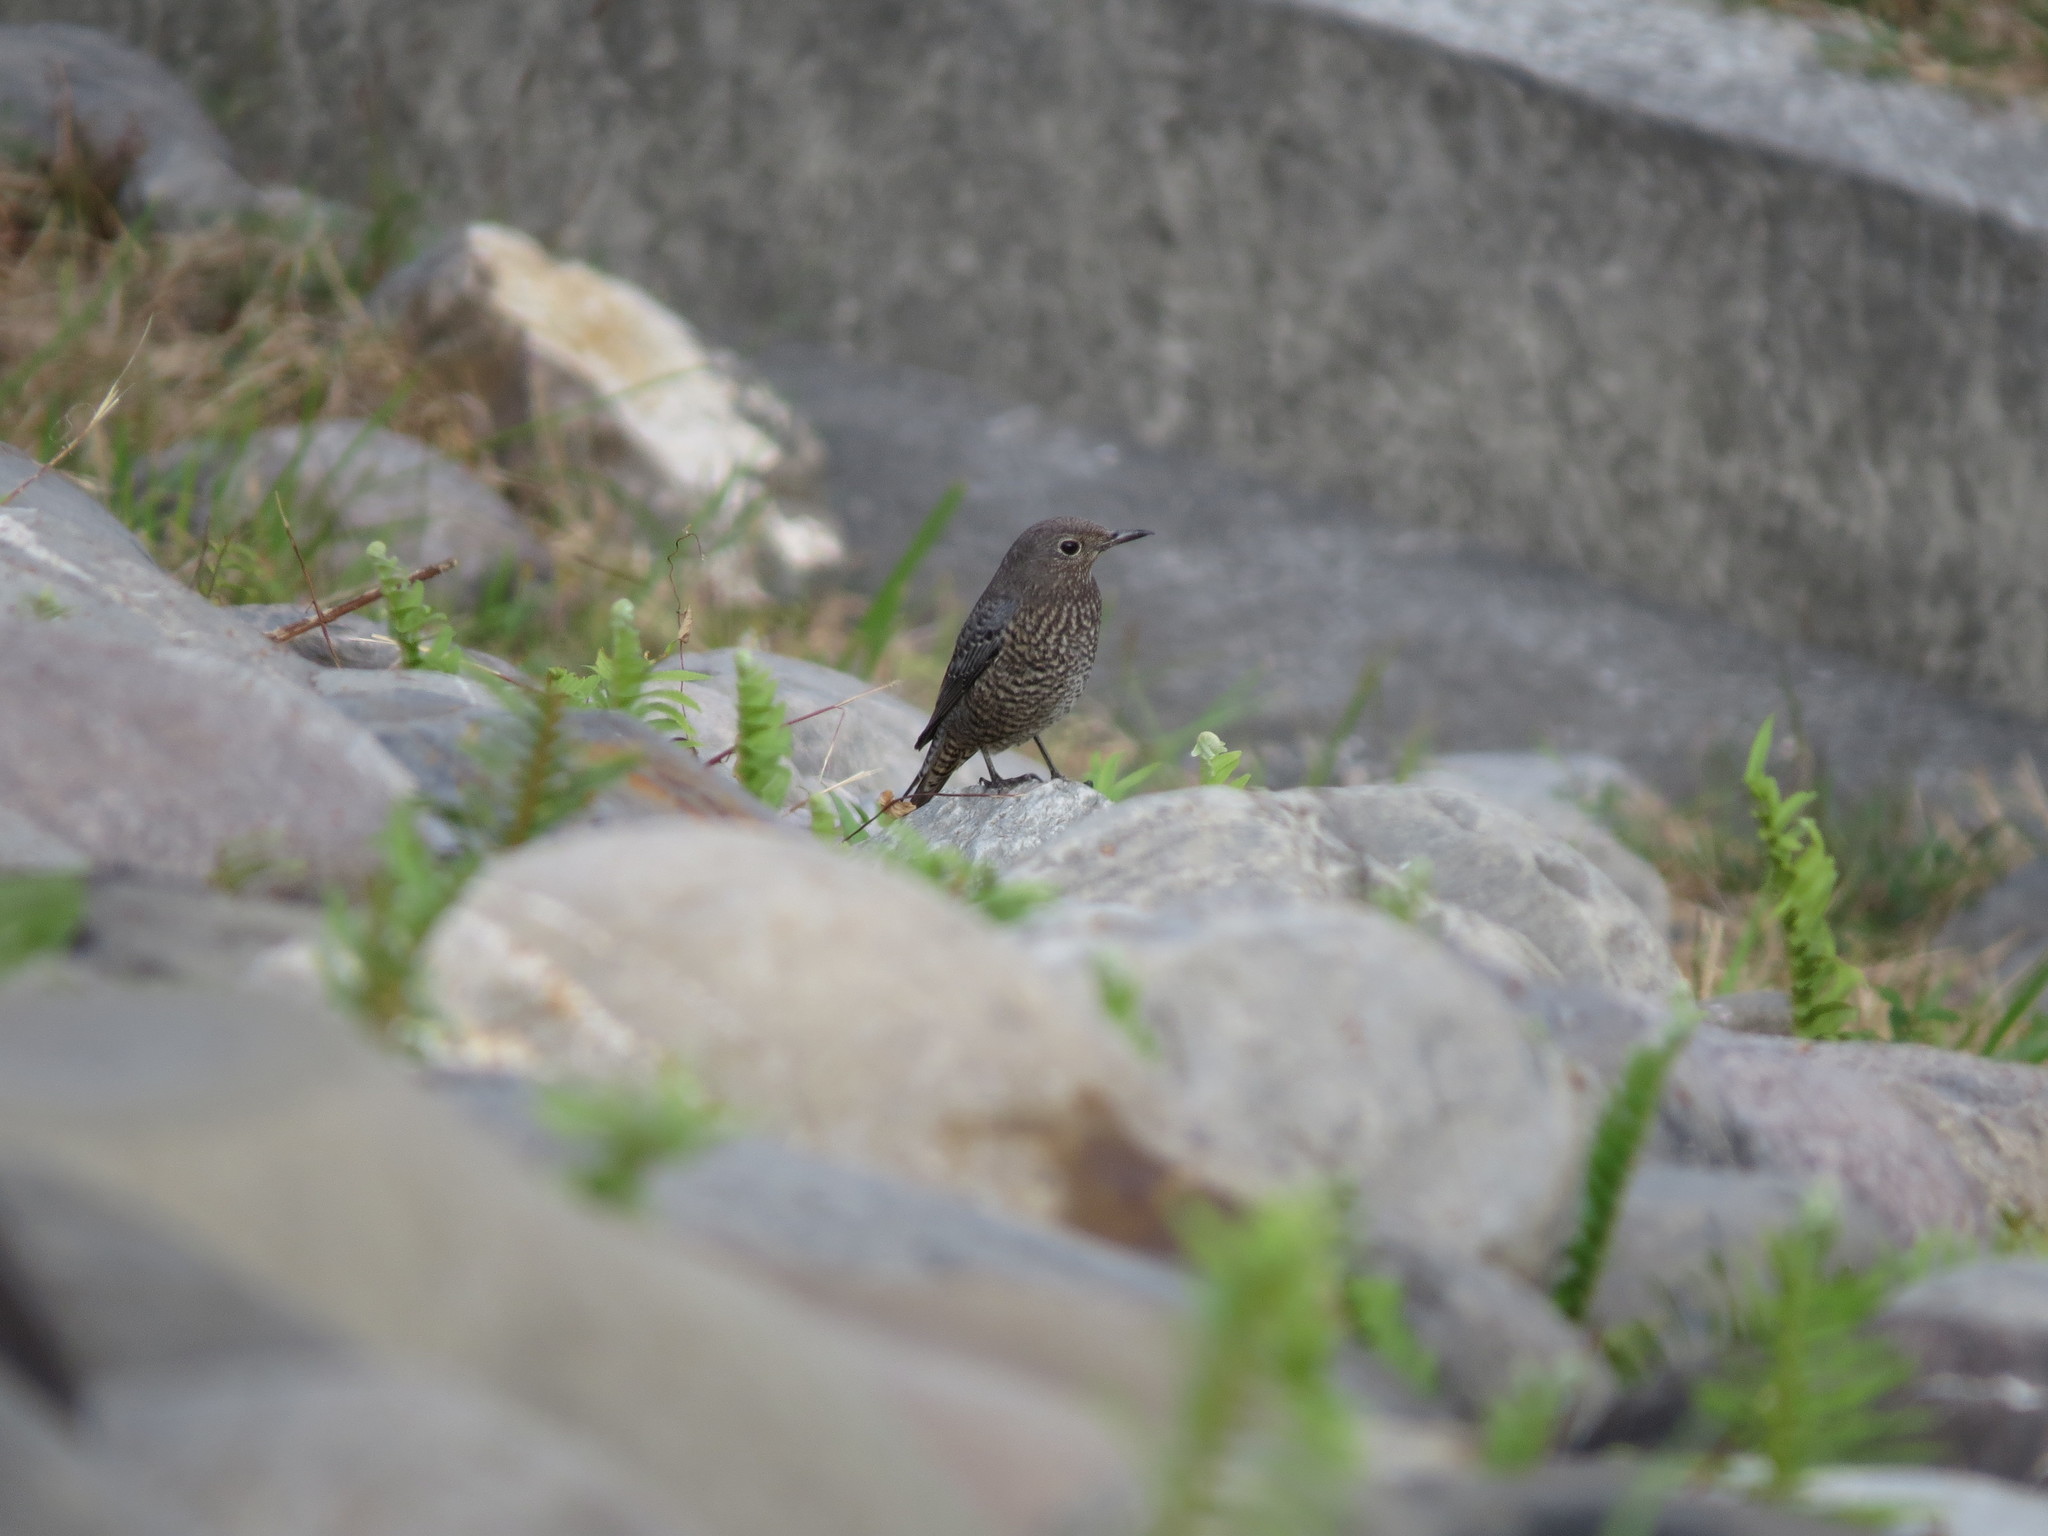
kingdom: Animalia
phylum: Chordata
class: Aves
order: Passeriformes
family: Muscicapidae
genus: Monticola
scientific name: Monticola solitarius
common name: Blue rock thrush
